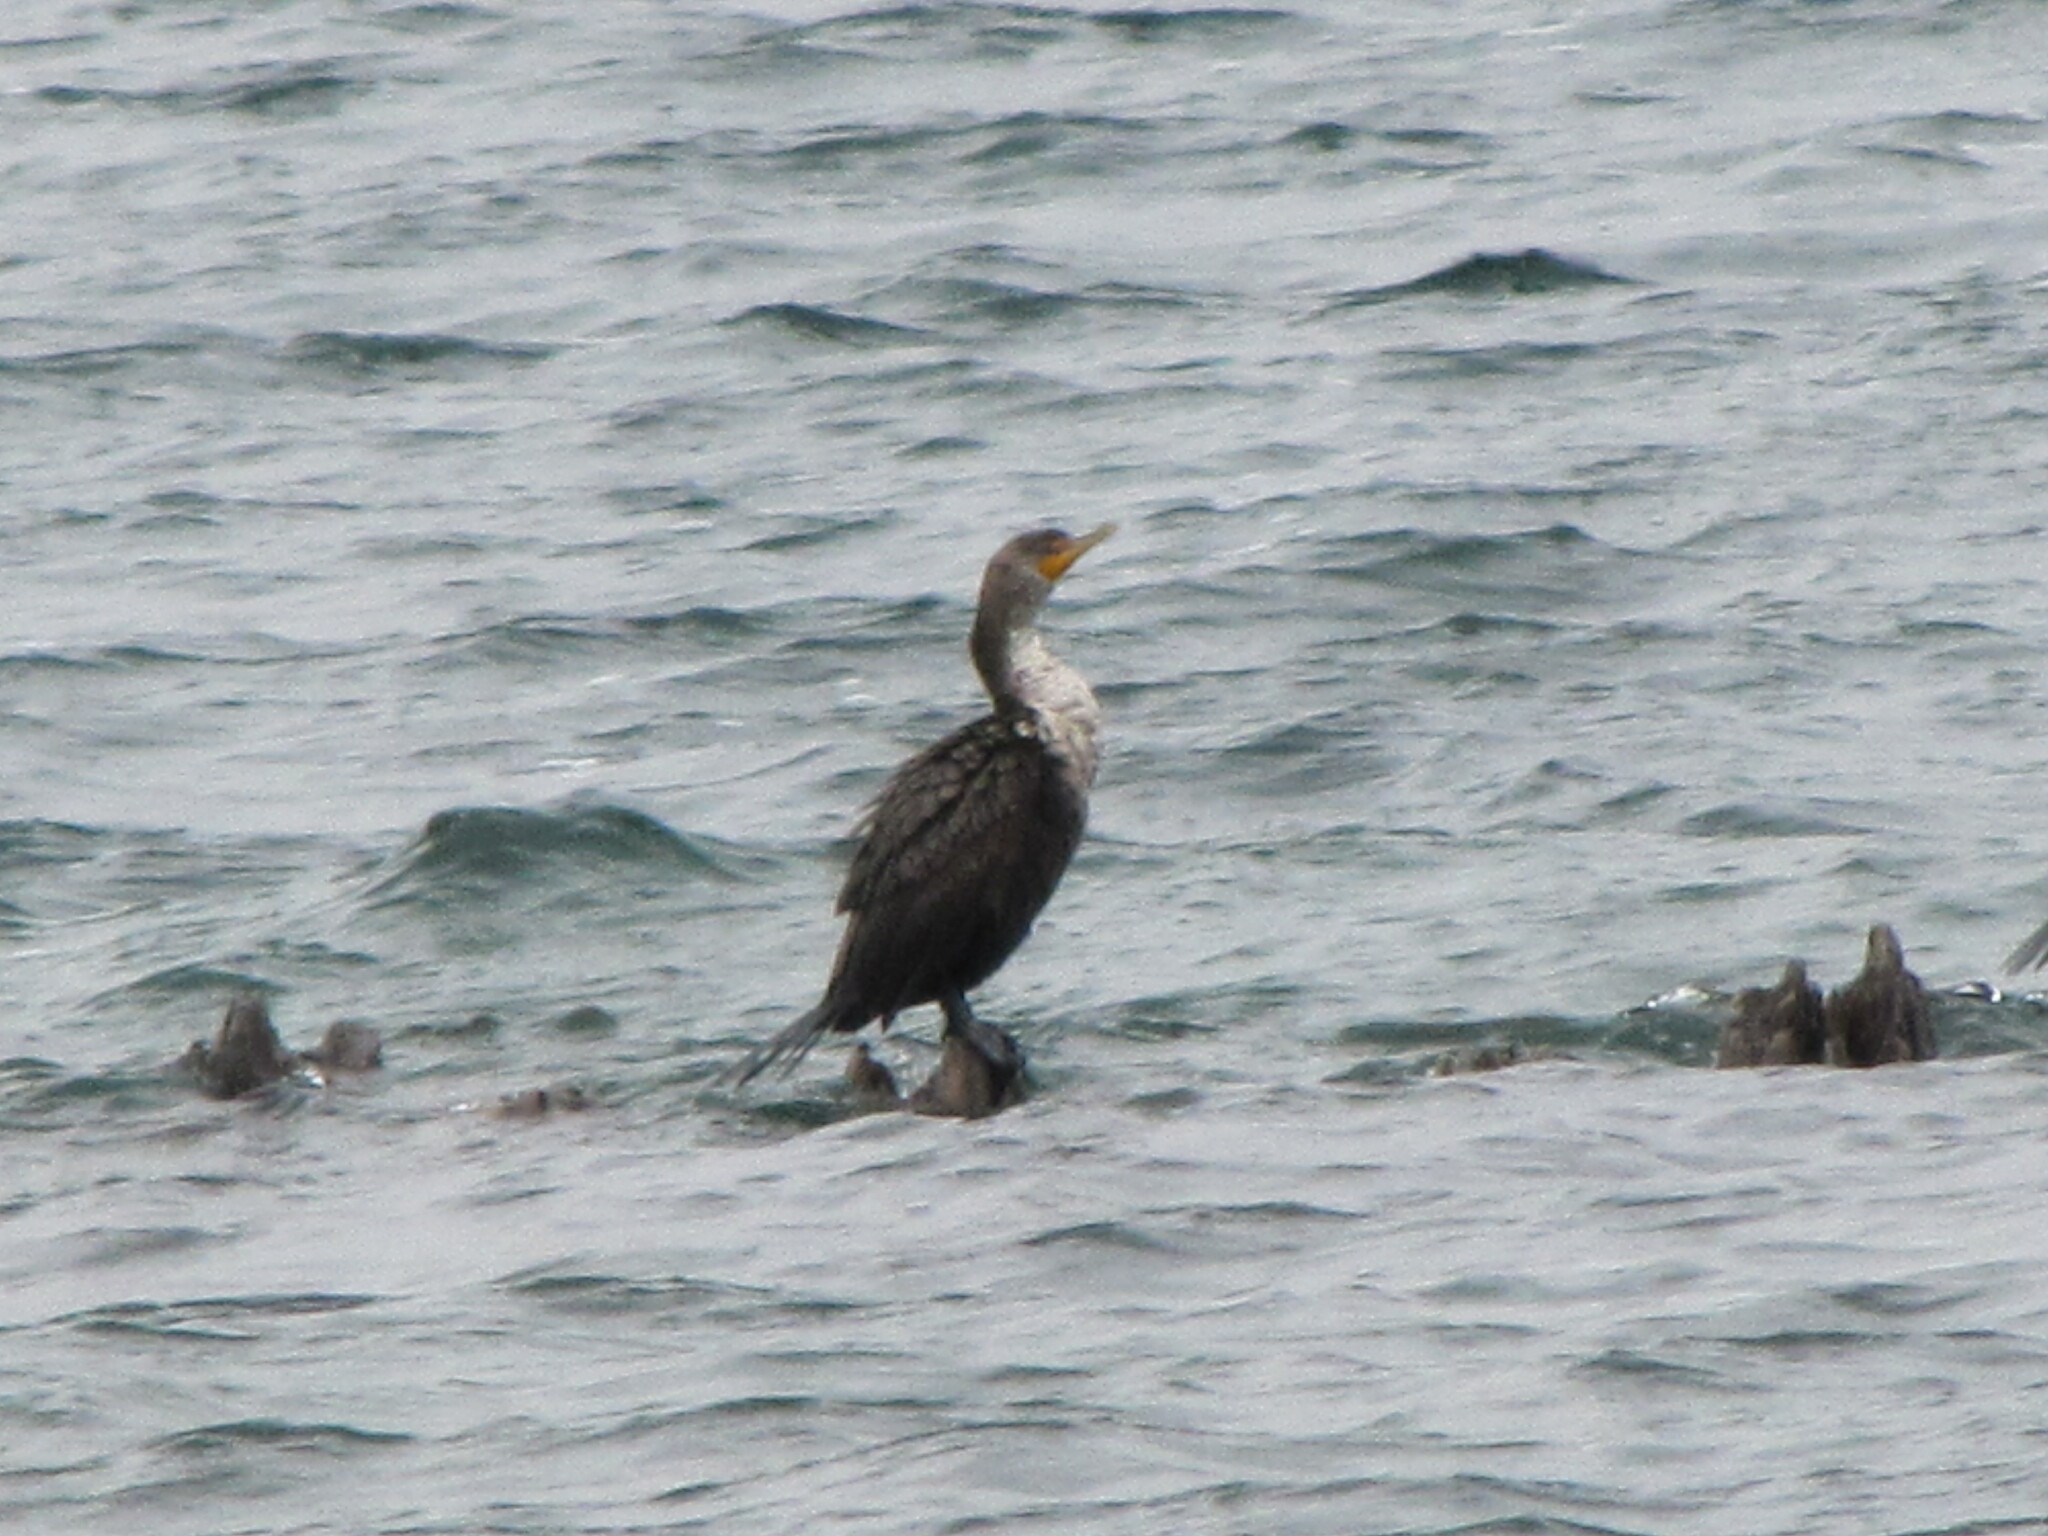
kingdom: Animalia
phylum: Chordata
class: Aves
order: Suliformes
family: Phalacrocoracidae
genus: Phalacrocorax
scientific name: Phalacrocorax auritus
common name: Double-crested cormorant
